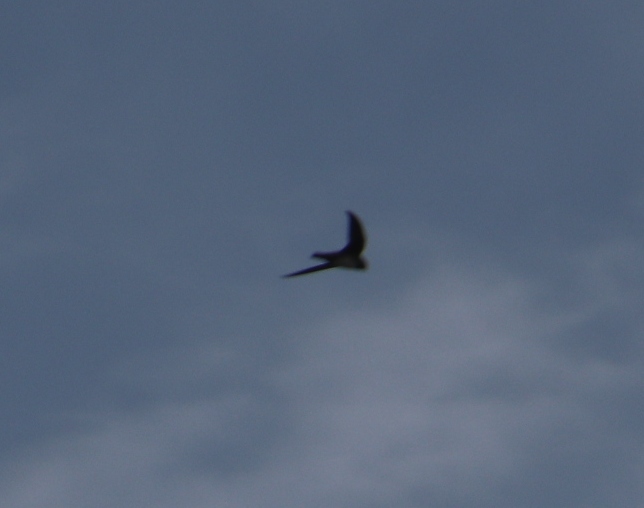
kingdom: Animalia
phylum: Chordata
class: Aves
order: Apodiformes
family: Apodidae
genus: Tachymarptis
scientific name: Tachymarptis melba
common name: Alpine swift
